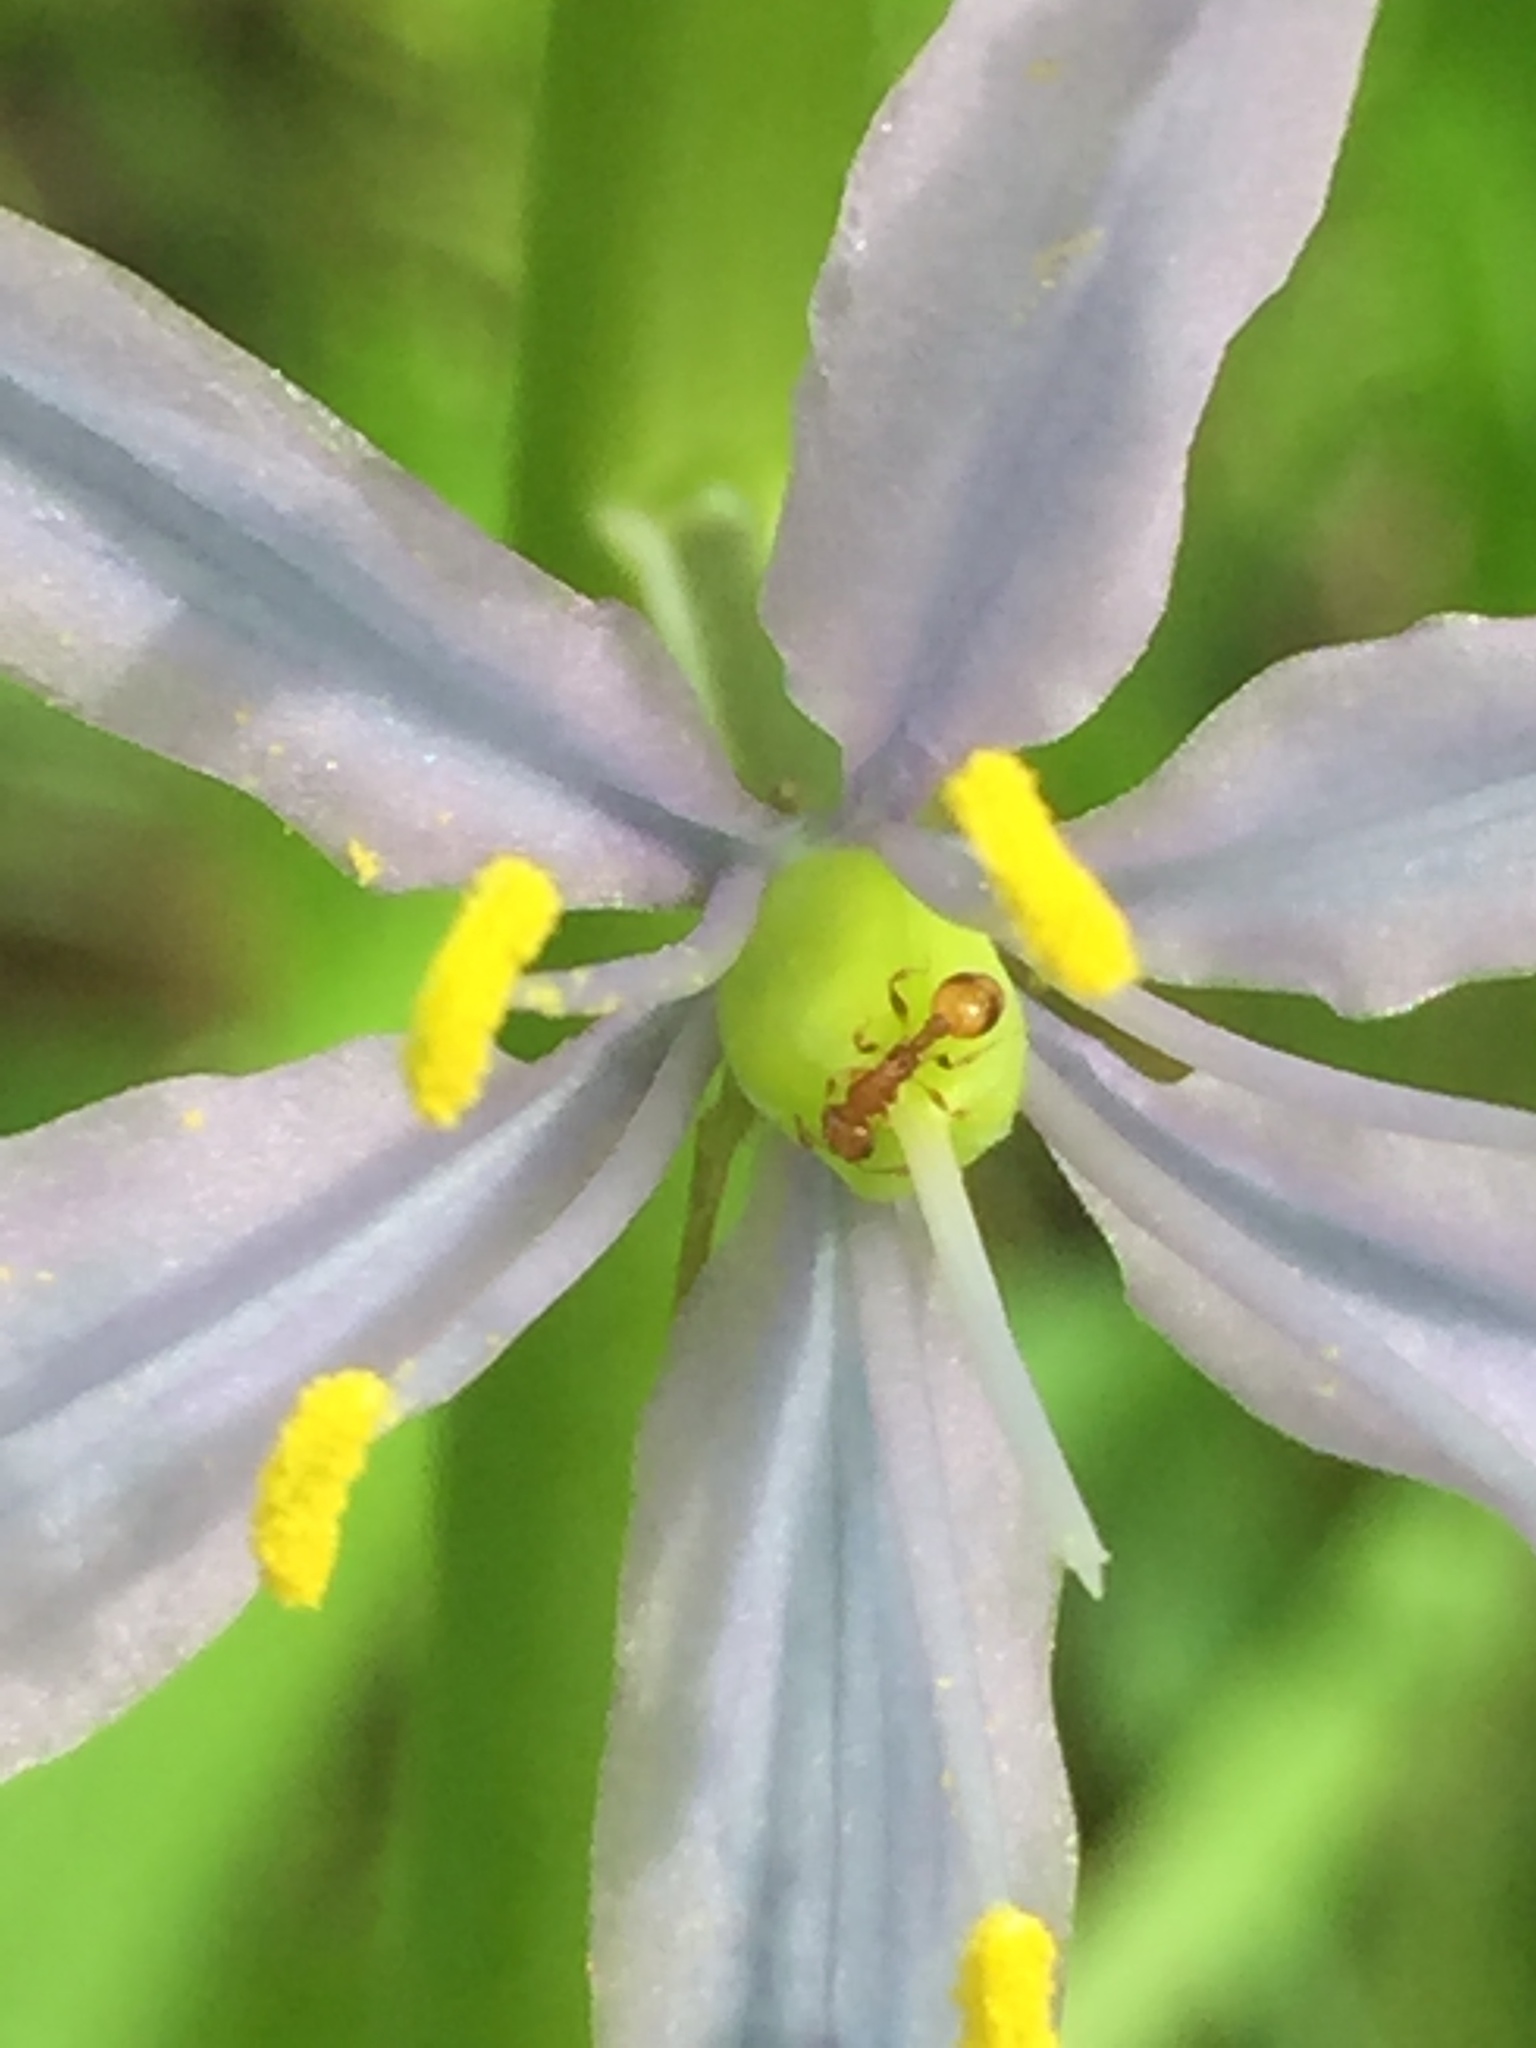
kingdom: Animalia
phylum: Arthropoda
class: Insecta
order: Hymenoptera
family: Formicidae
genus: Temnothorax
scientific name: Temnothorax curvispinosus
